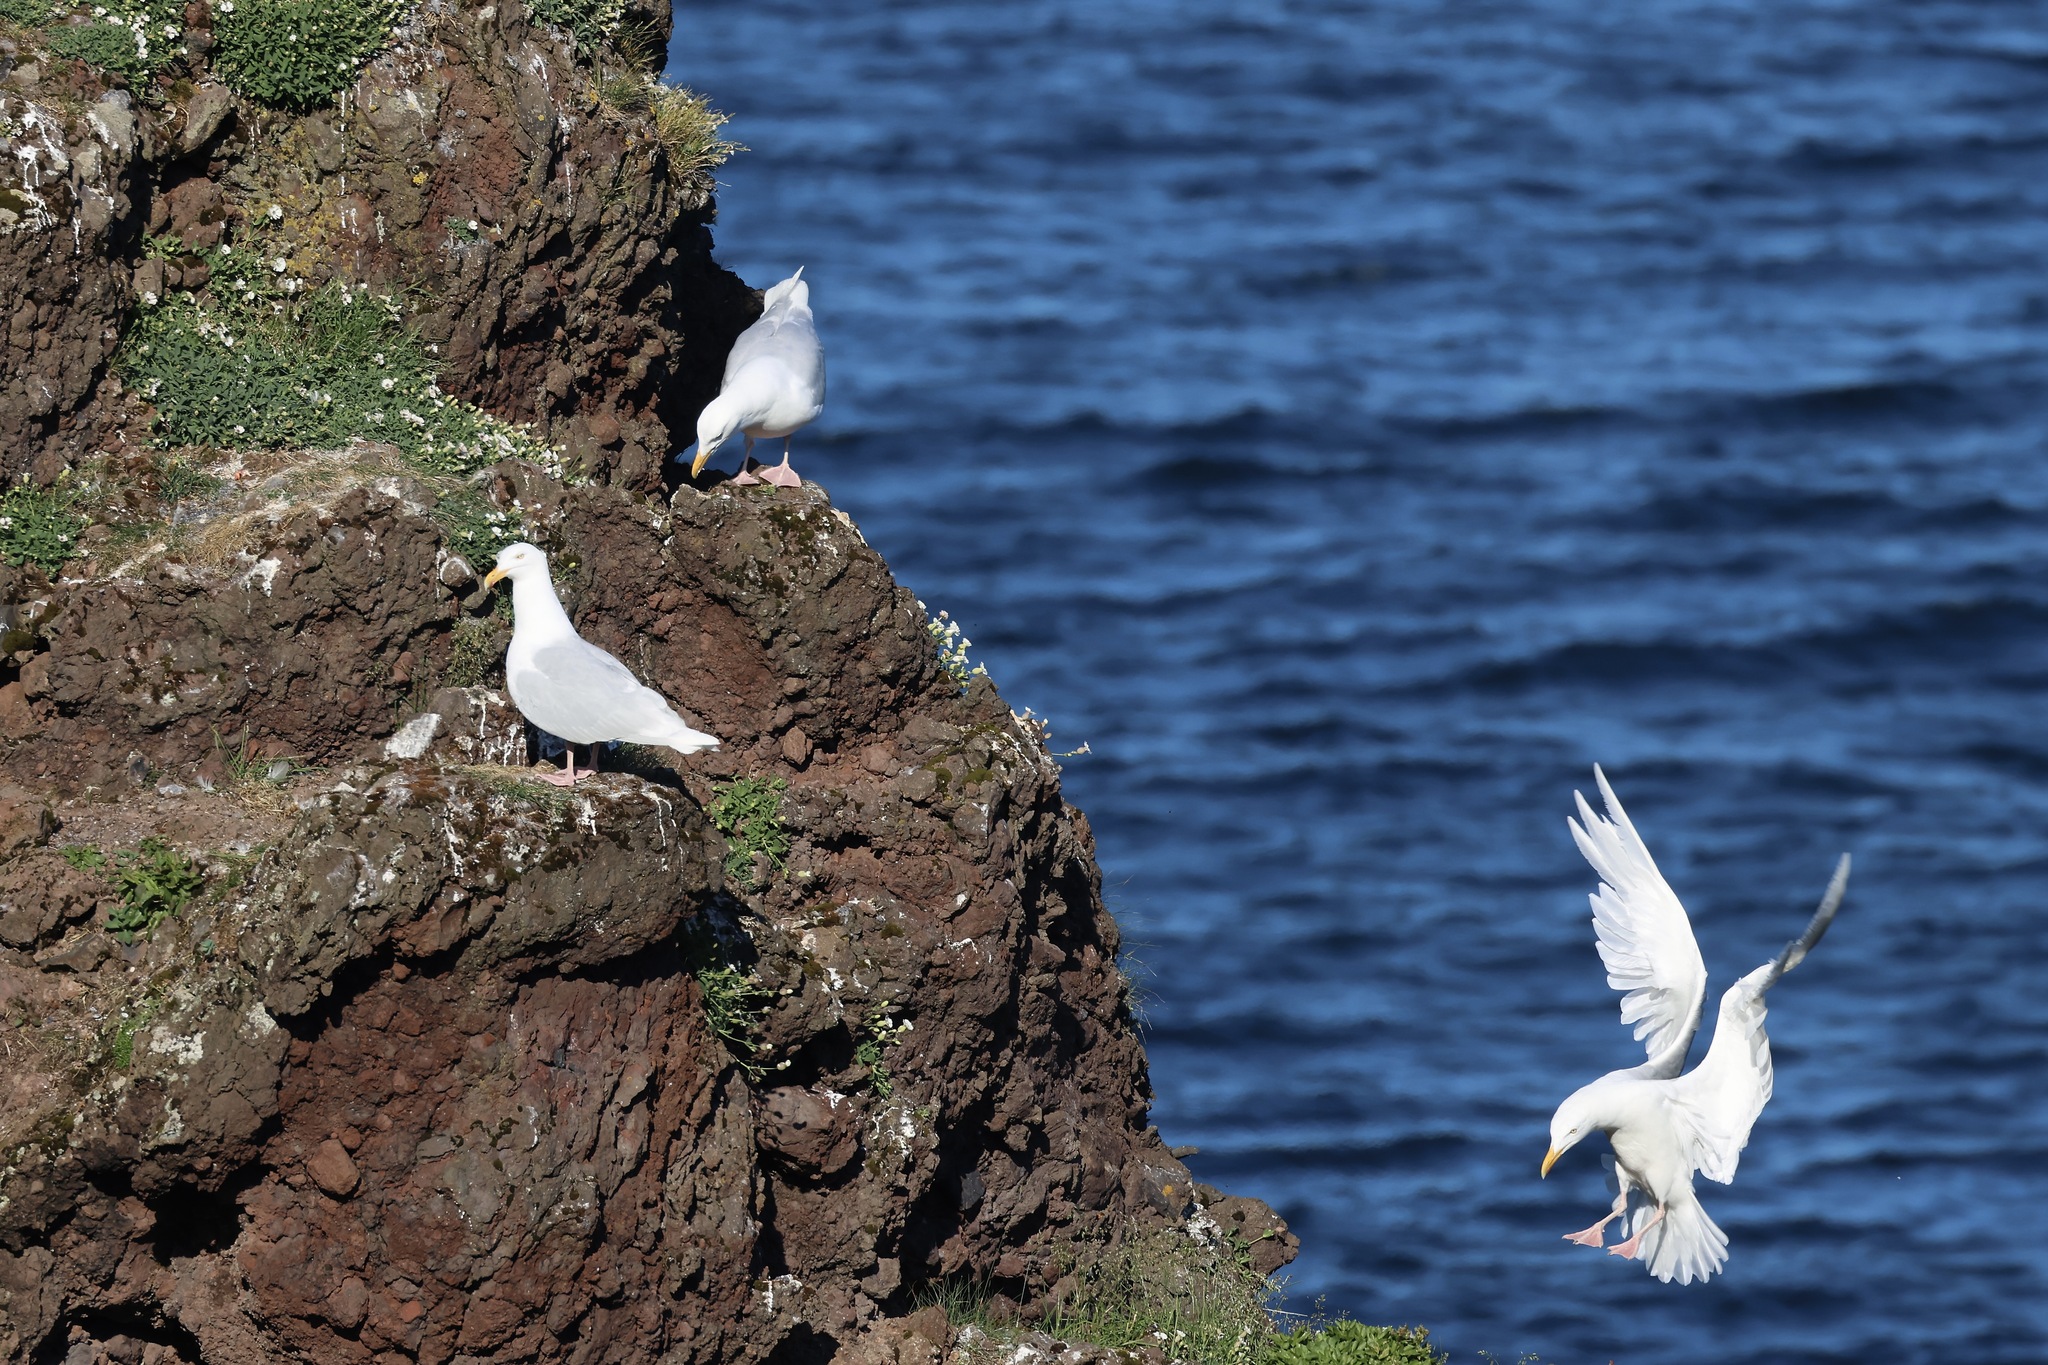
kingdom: Animalia
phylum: Chordata
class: Aves
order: Charadriiformes
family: Laridae
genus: Larus
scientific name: Larus hyperboreus
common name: Glaucous gull
